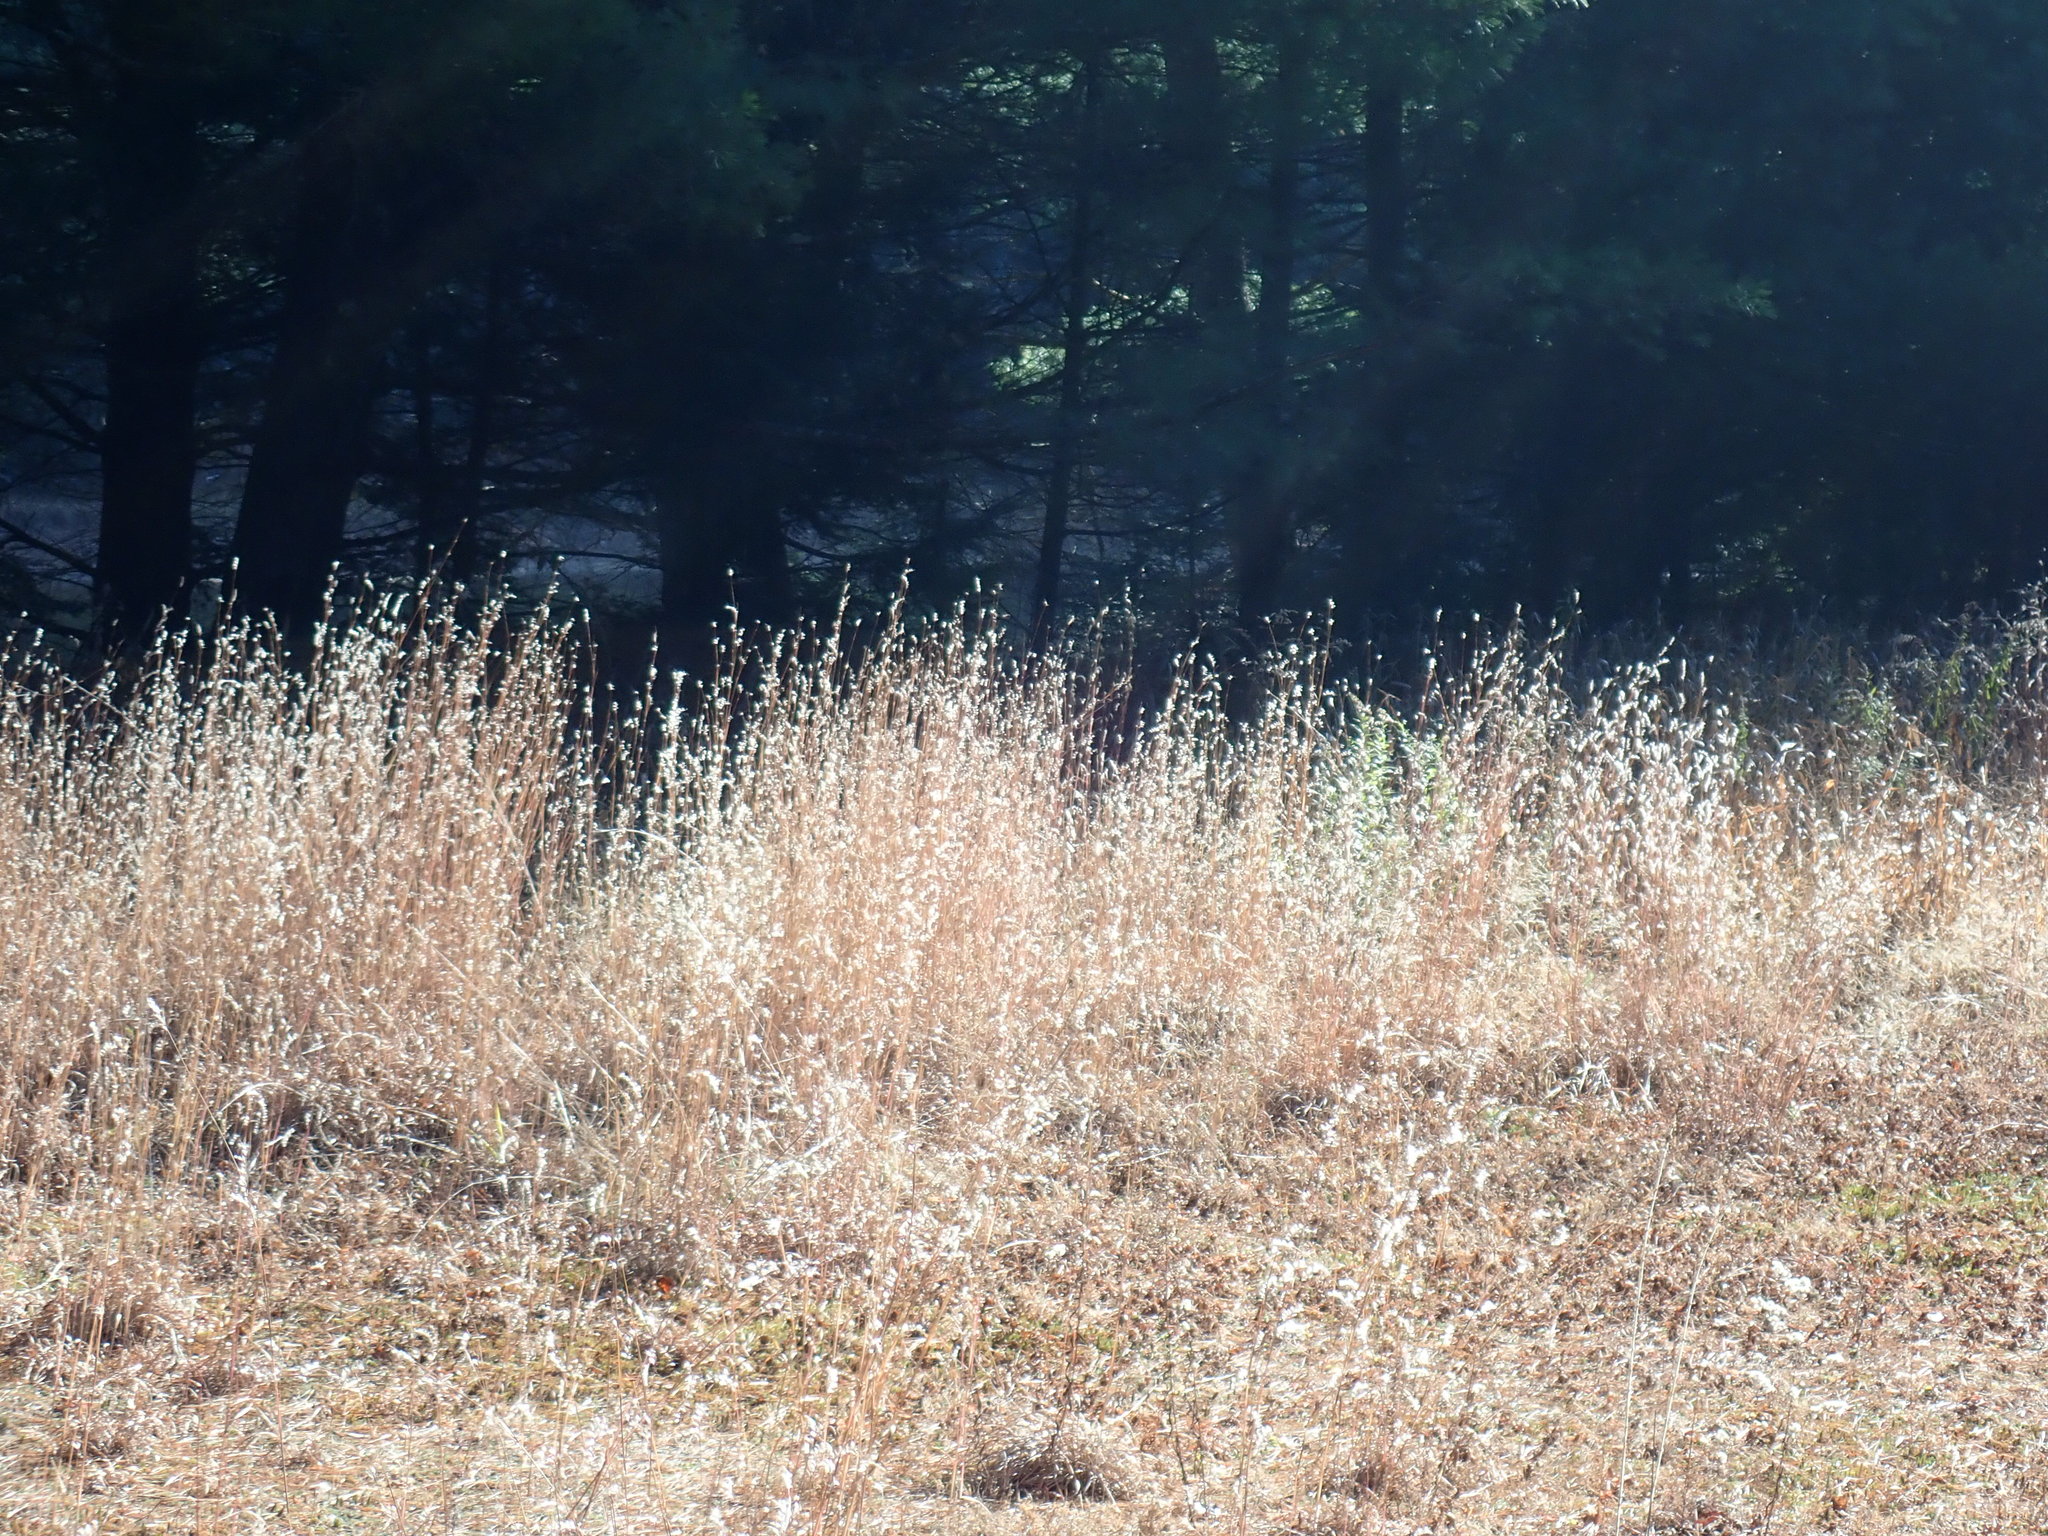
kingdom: Plantae
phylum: Tracheophyta
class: Liliopsida
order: Poales
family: Poaceae
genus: Schizachyrium
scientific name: Schizachyrium scoparium
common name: Little bluestem
